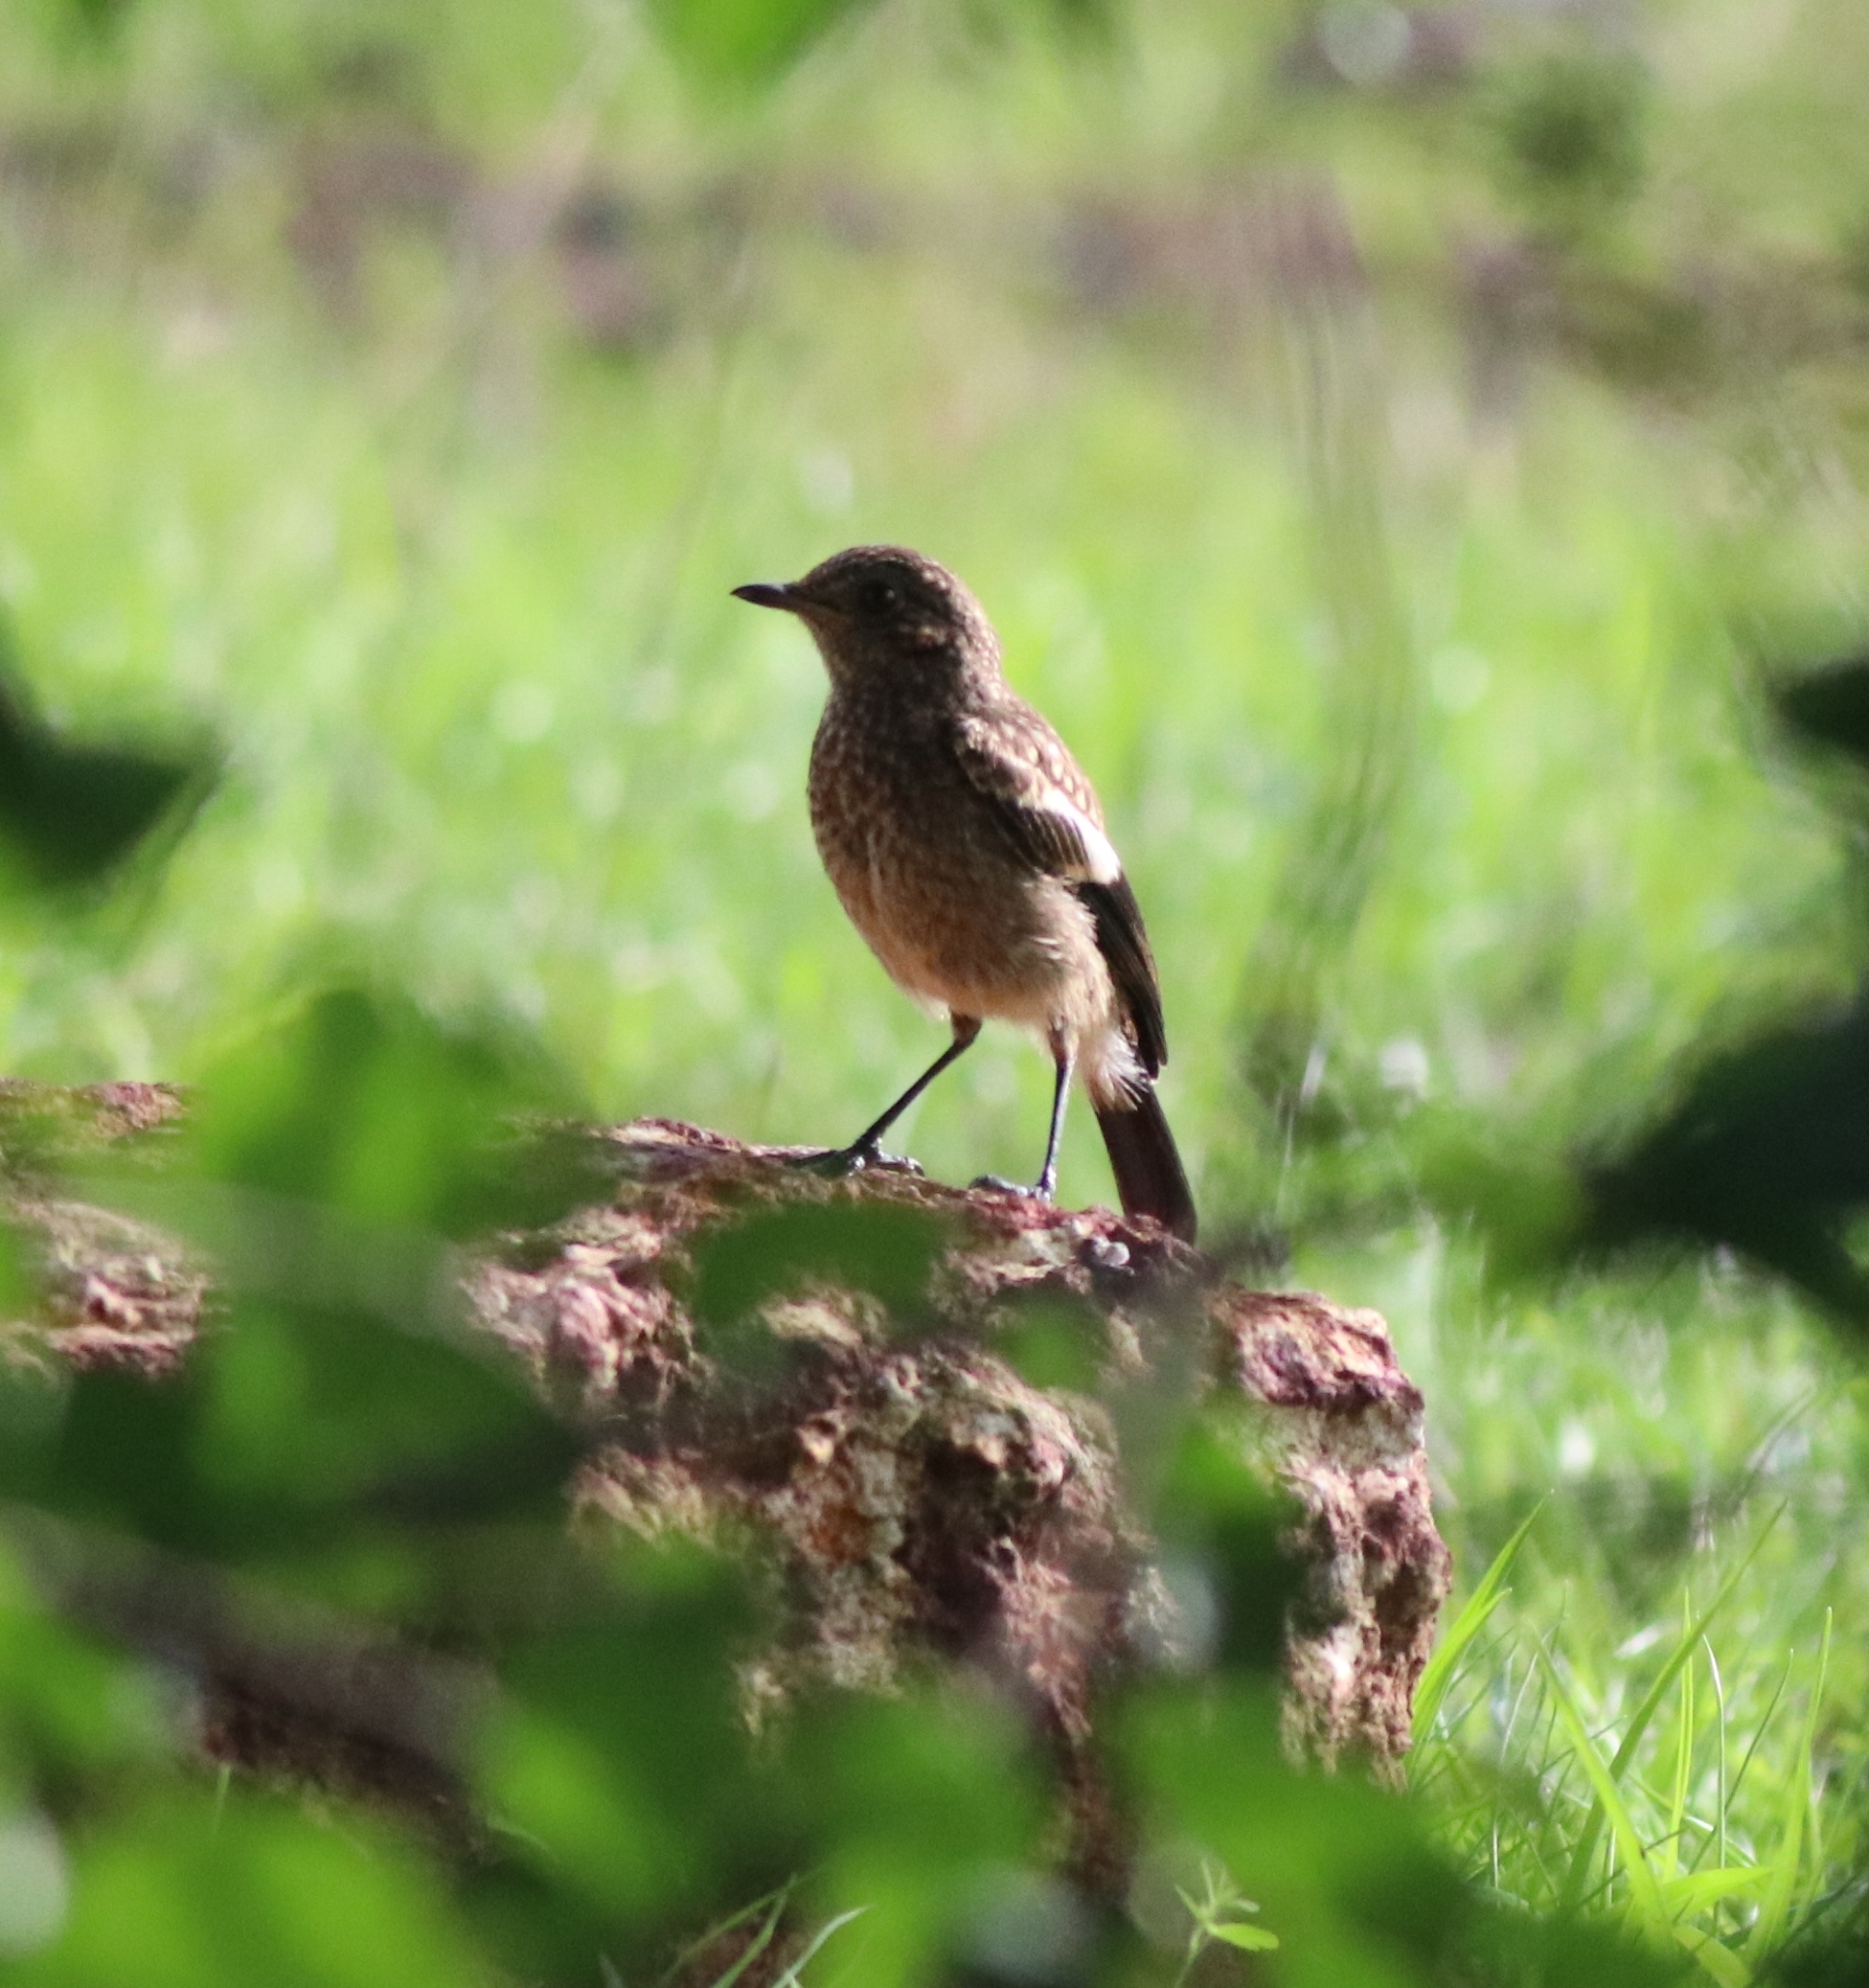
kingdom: Animalia
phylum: Chordata
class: Aves
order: Passeriformes
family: Muscicapidae
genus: Saxicola
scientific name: Saxicola caprata
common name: Pied bush chat
